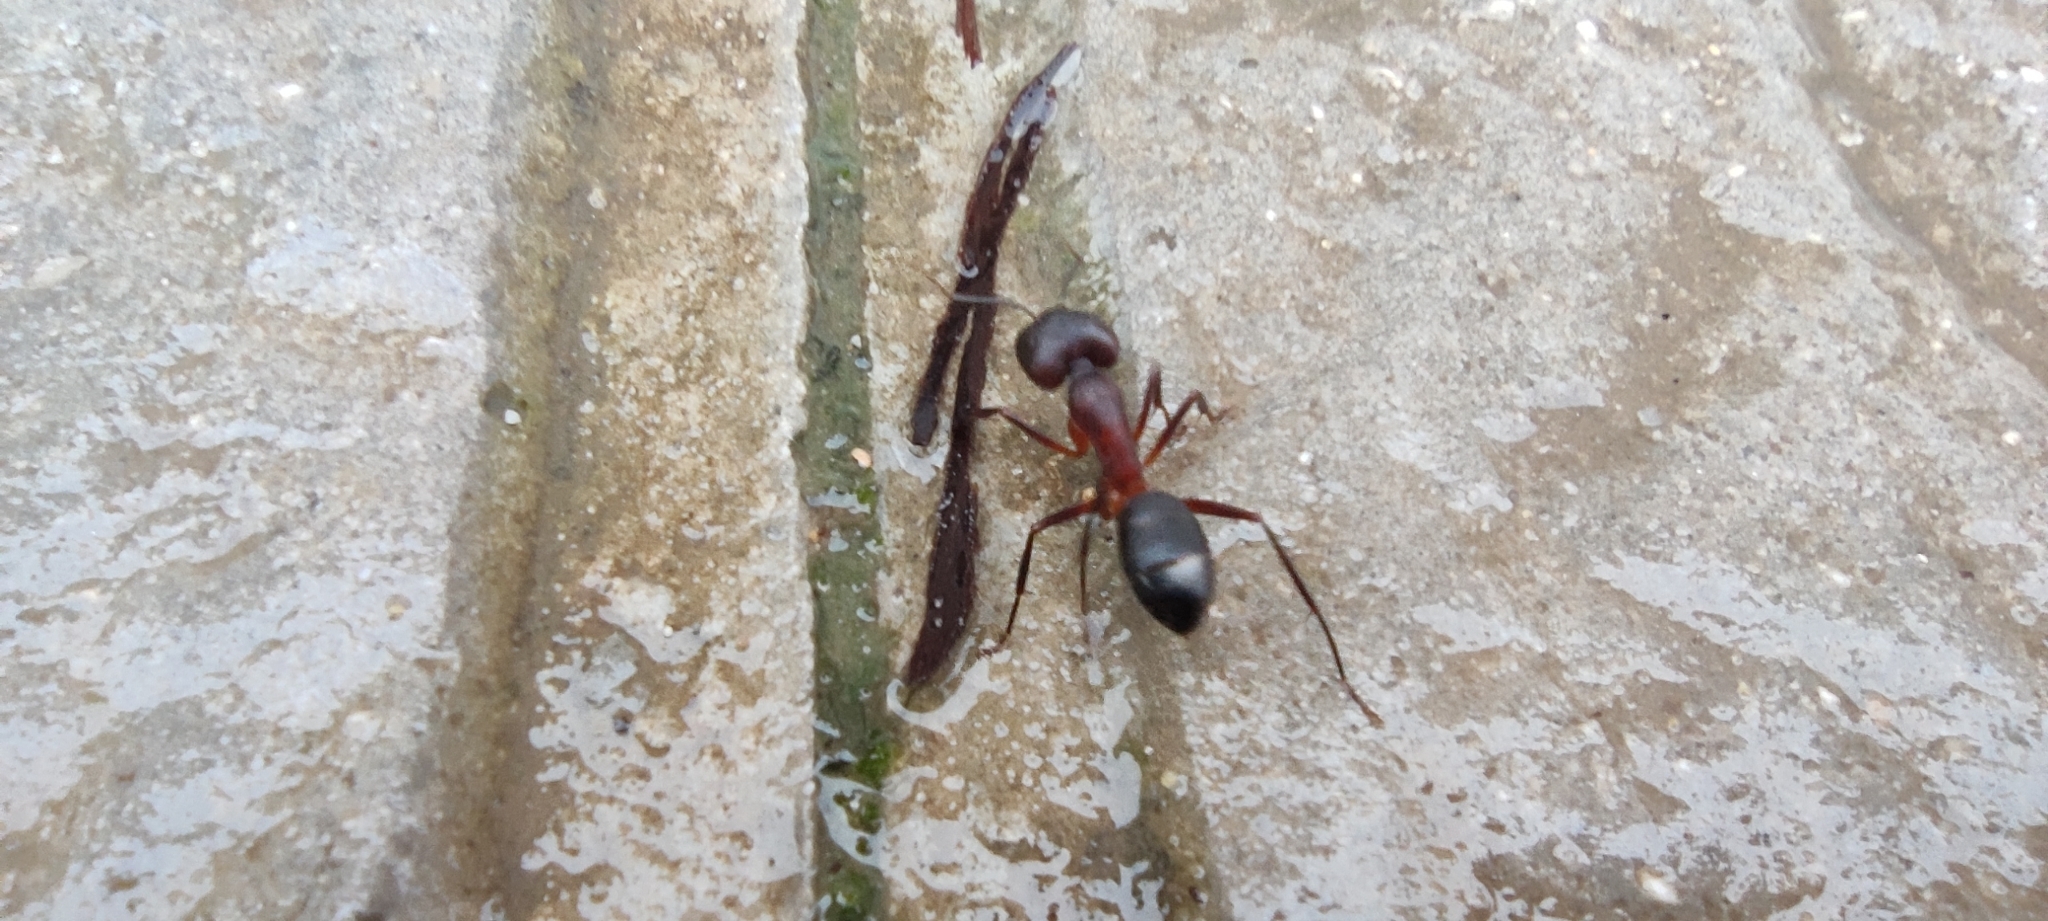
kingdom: Animalia
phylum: Arthropoda
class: Insecta
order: Hymenoptera
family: Formicidae
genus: Camponotus
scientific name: Camponotus barbaricus
